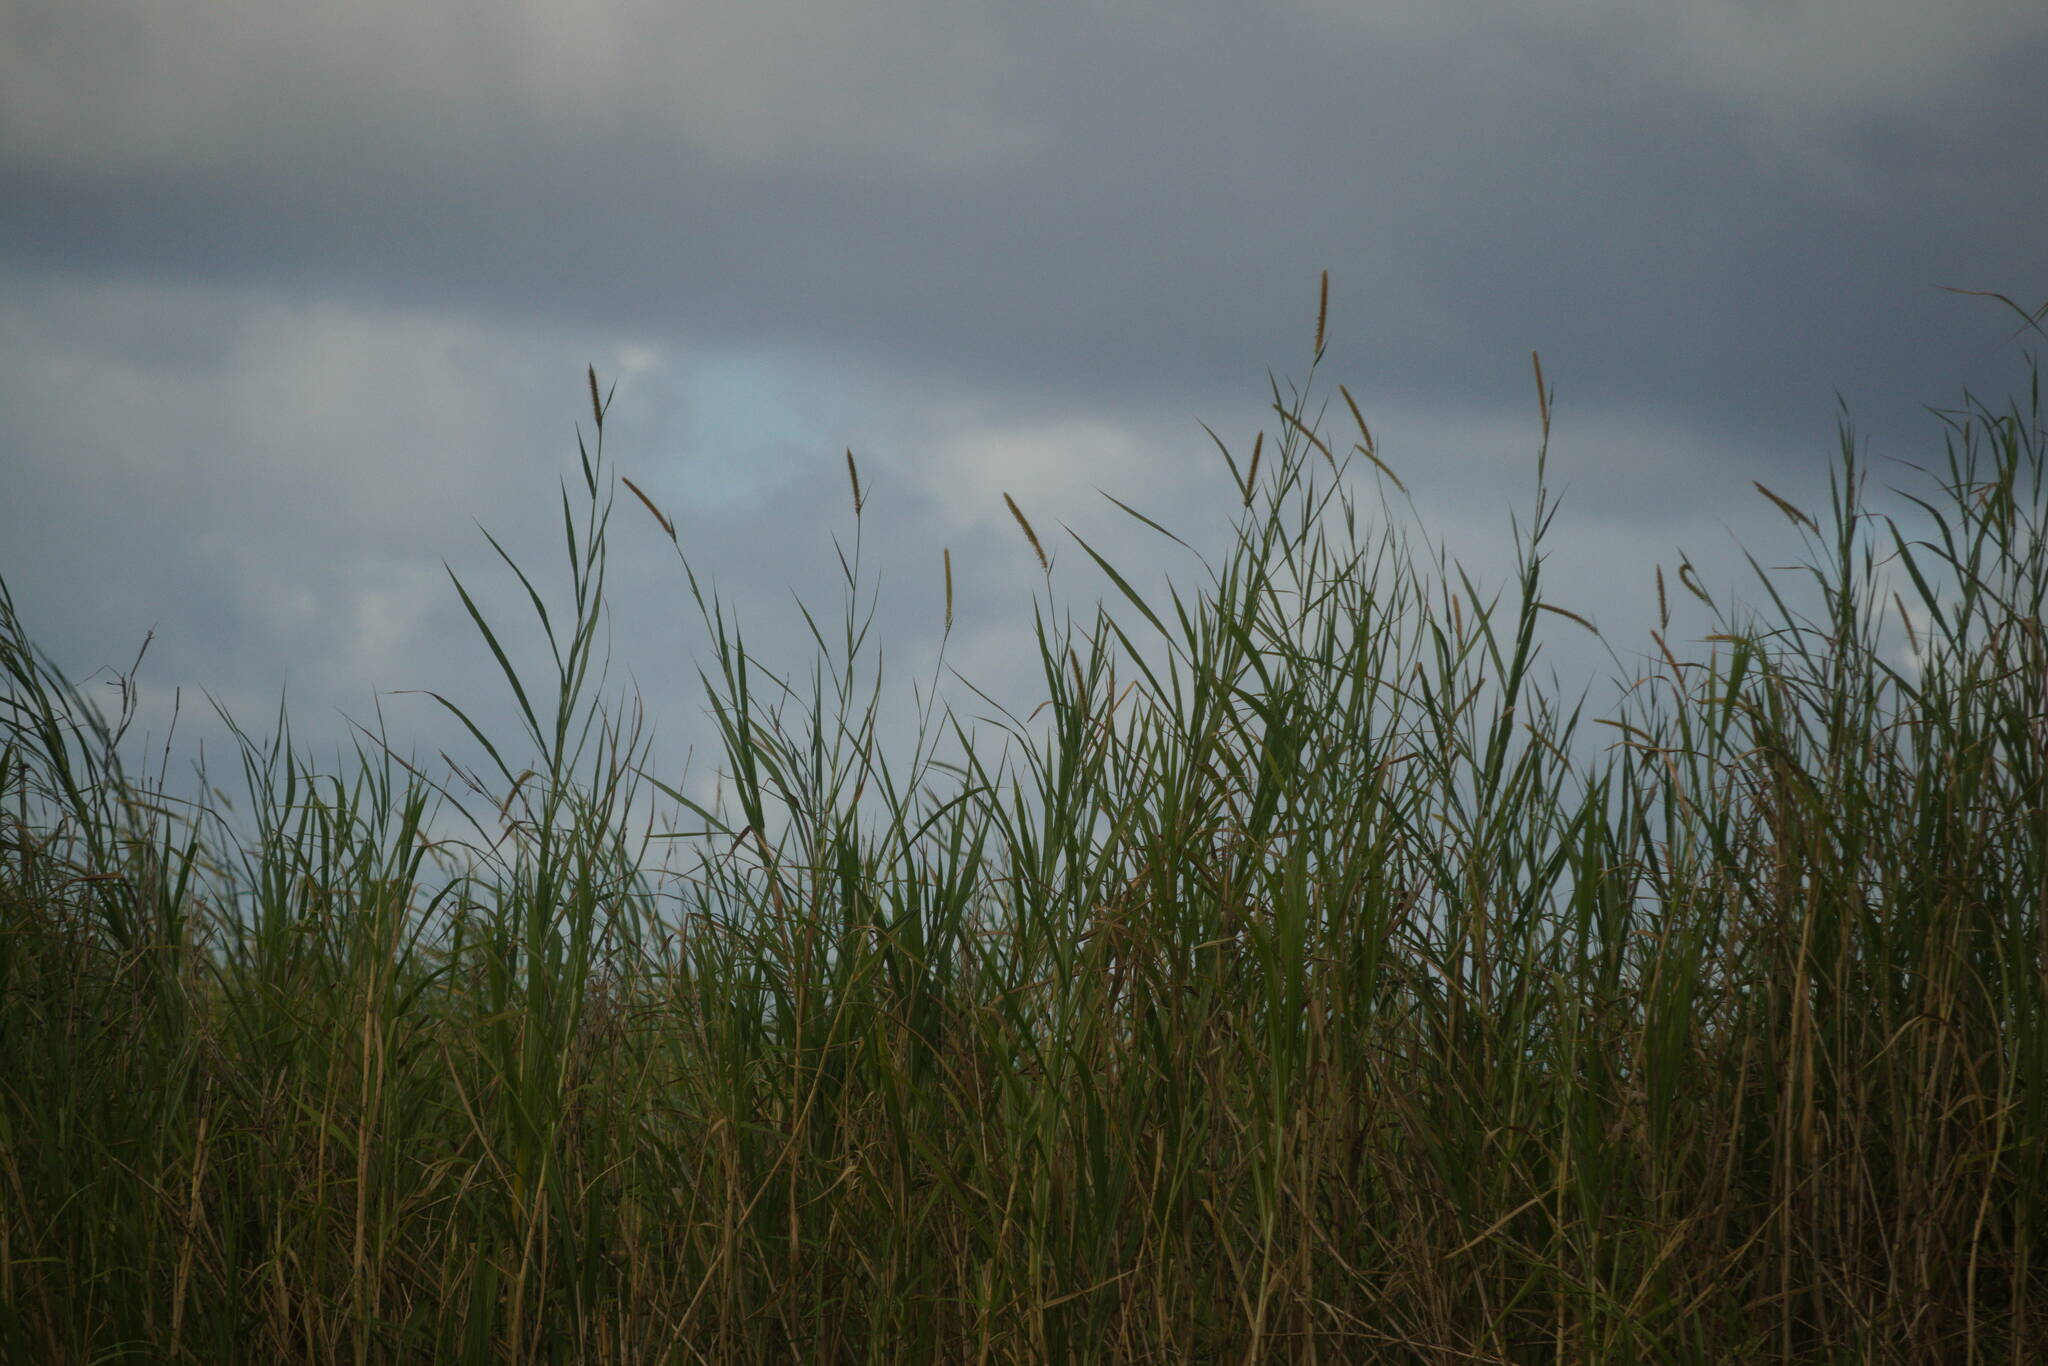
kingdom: Plantae
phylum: Tracheophyta
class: Liliopsida
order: Poales
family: Poaceae
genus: Cenchrus
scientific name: Cenchrus purpureus
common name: Elephant grass
